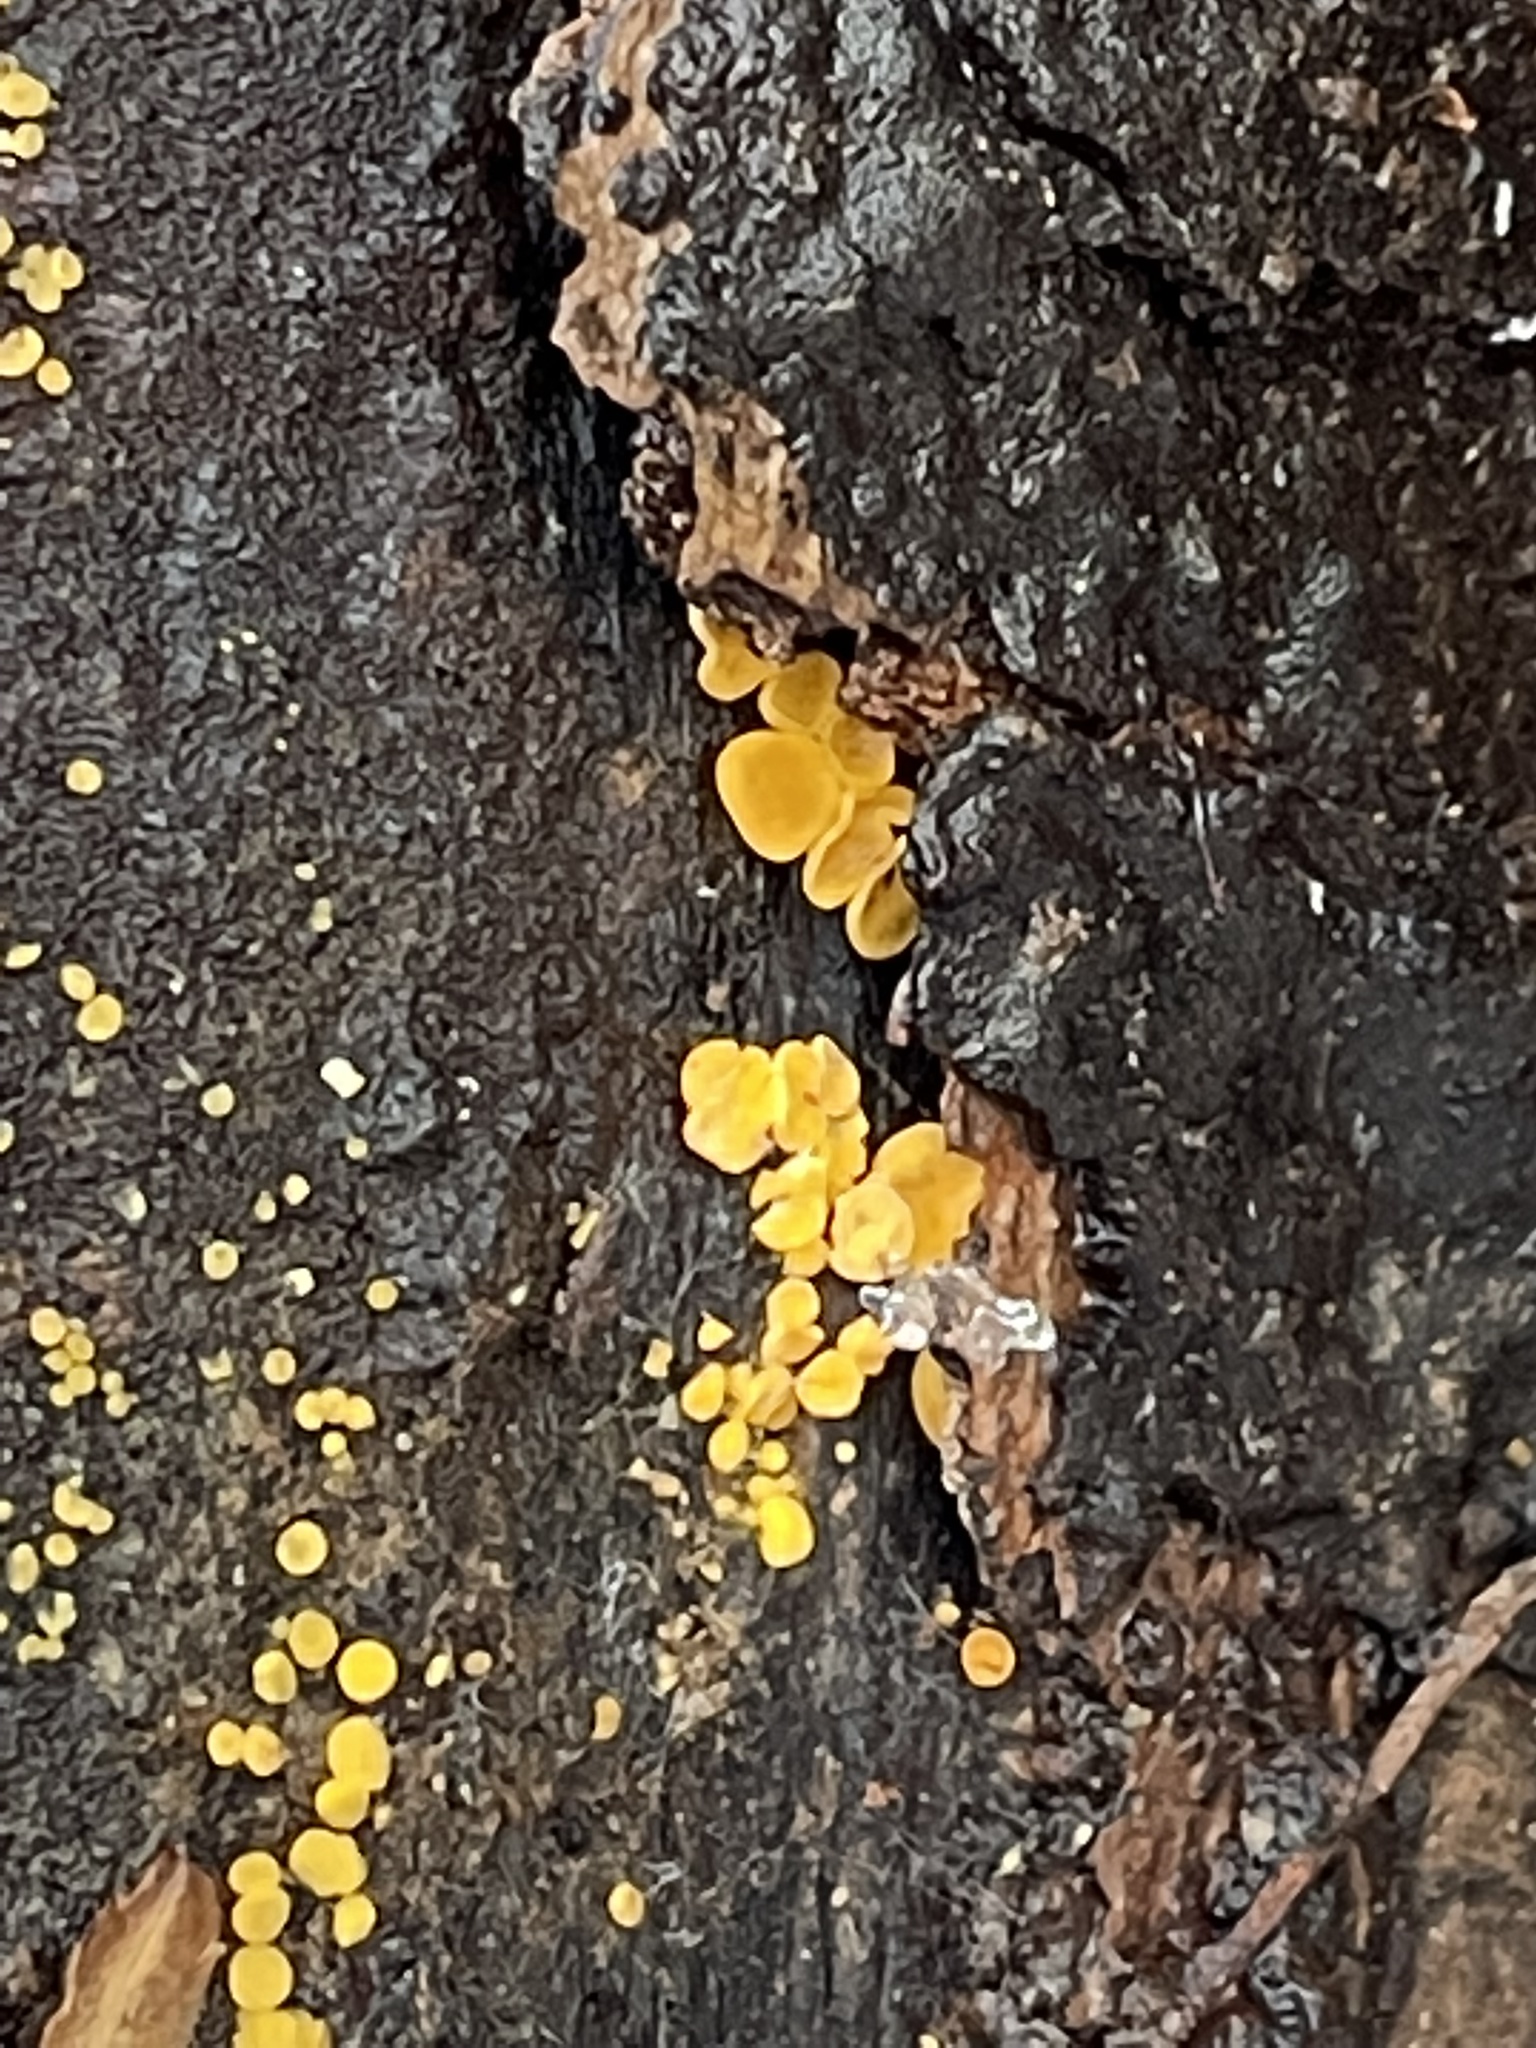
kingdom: Fungi
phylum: Ascomycota
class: Leotiomycetes
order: Helotiales
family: Pezizellaceae
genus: Calycina
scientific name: Calycina citrina
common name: Yellow fairy cups
